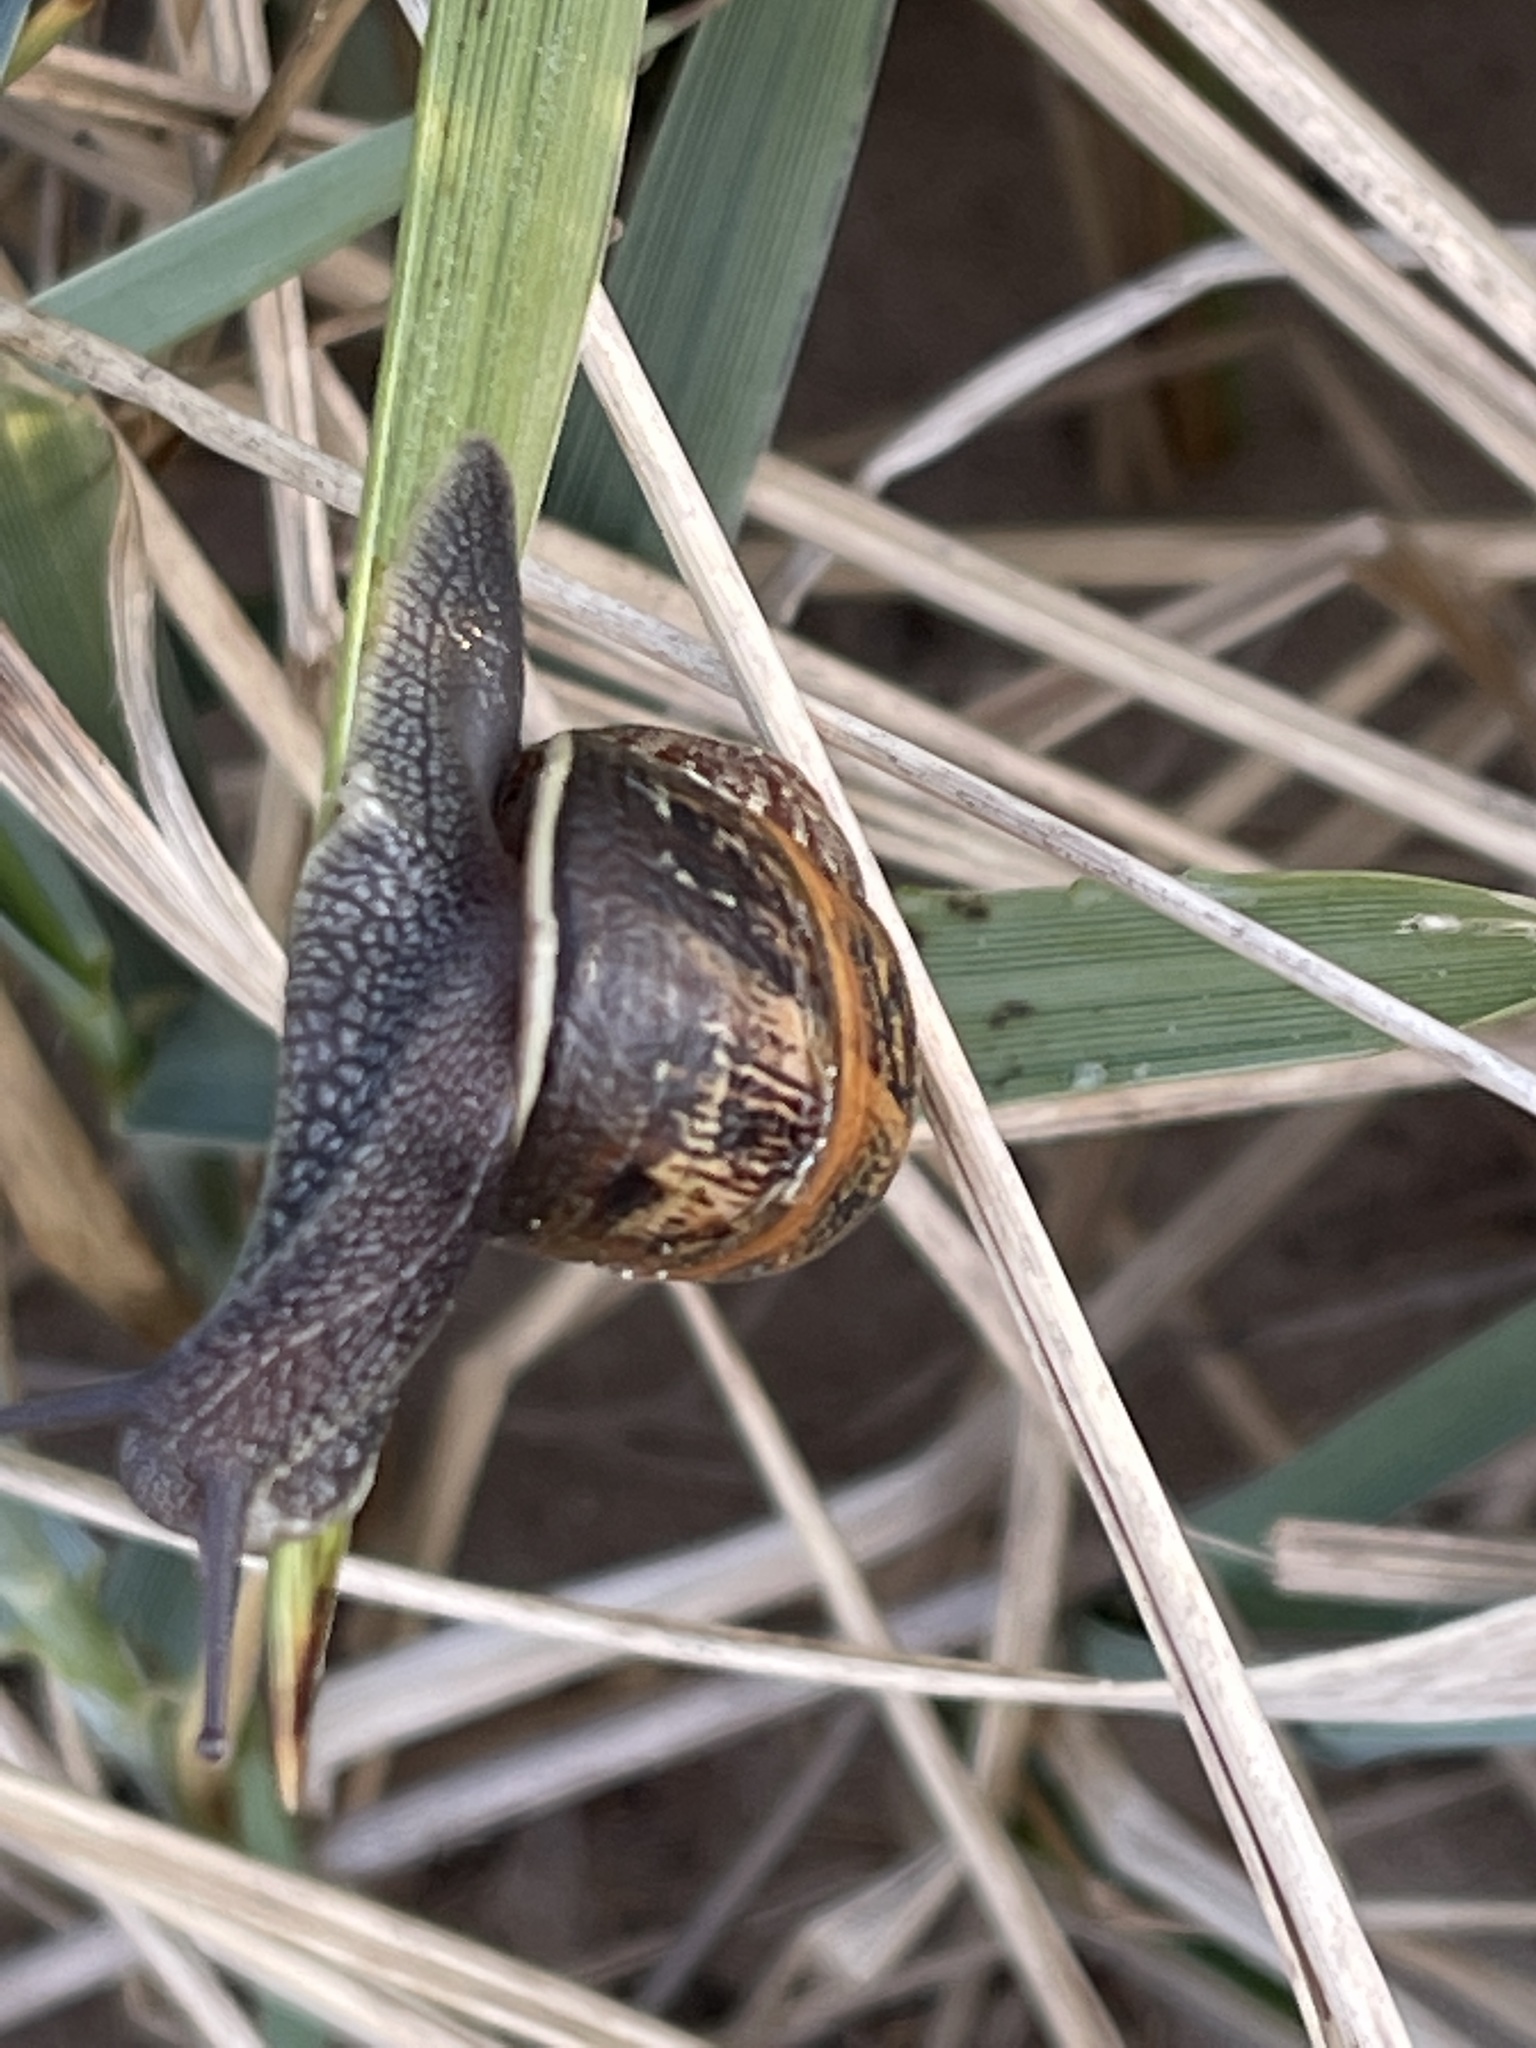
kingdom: Animalia
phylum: Mollusca
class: Gastropoda
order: Stylommatophora
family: Helicidae
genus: Cornu
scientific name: Cornu aspersum
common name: Brown garden snail
